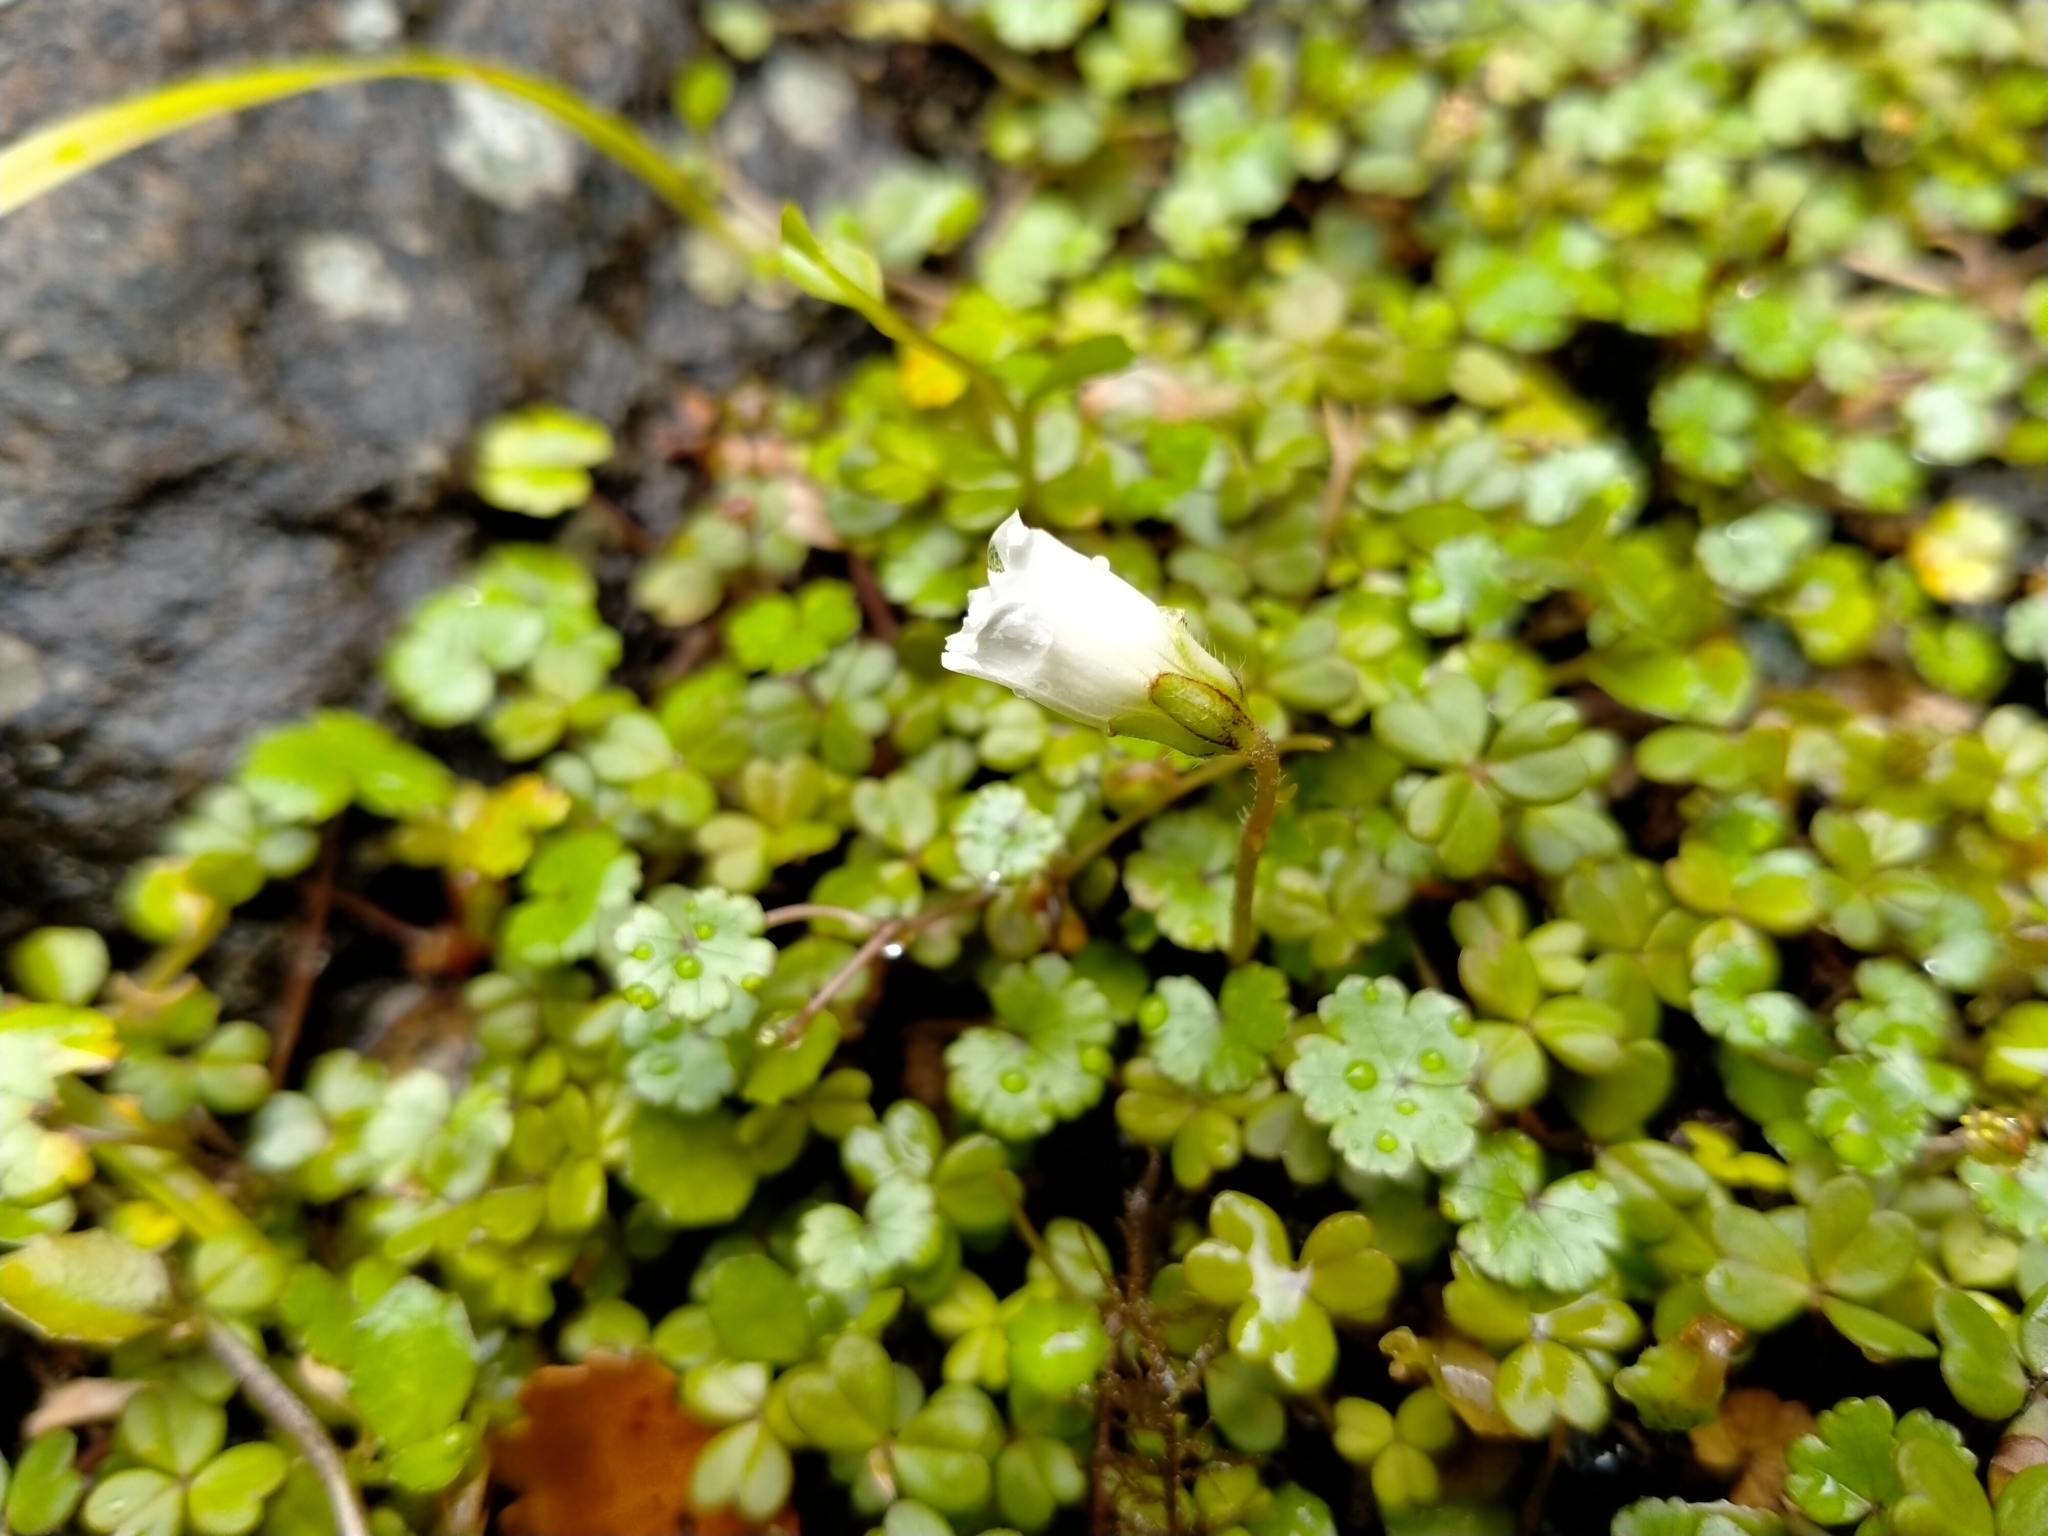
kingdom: Plantae
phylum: Tracheophyta
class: Magnoliopsida
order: Oxalidales
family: Oxalidaceae
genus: Oxalis
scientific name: Oxalis magellanica
